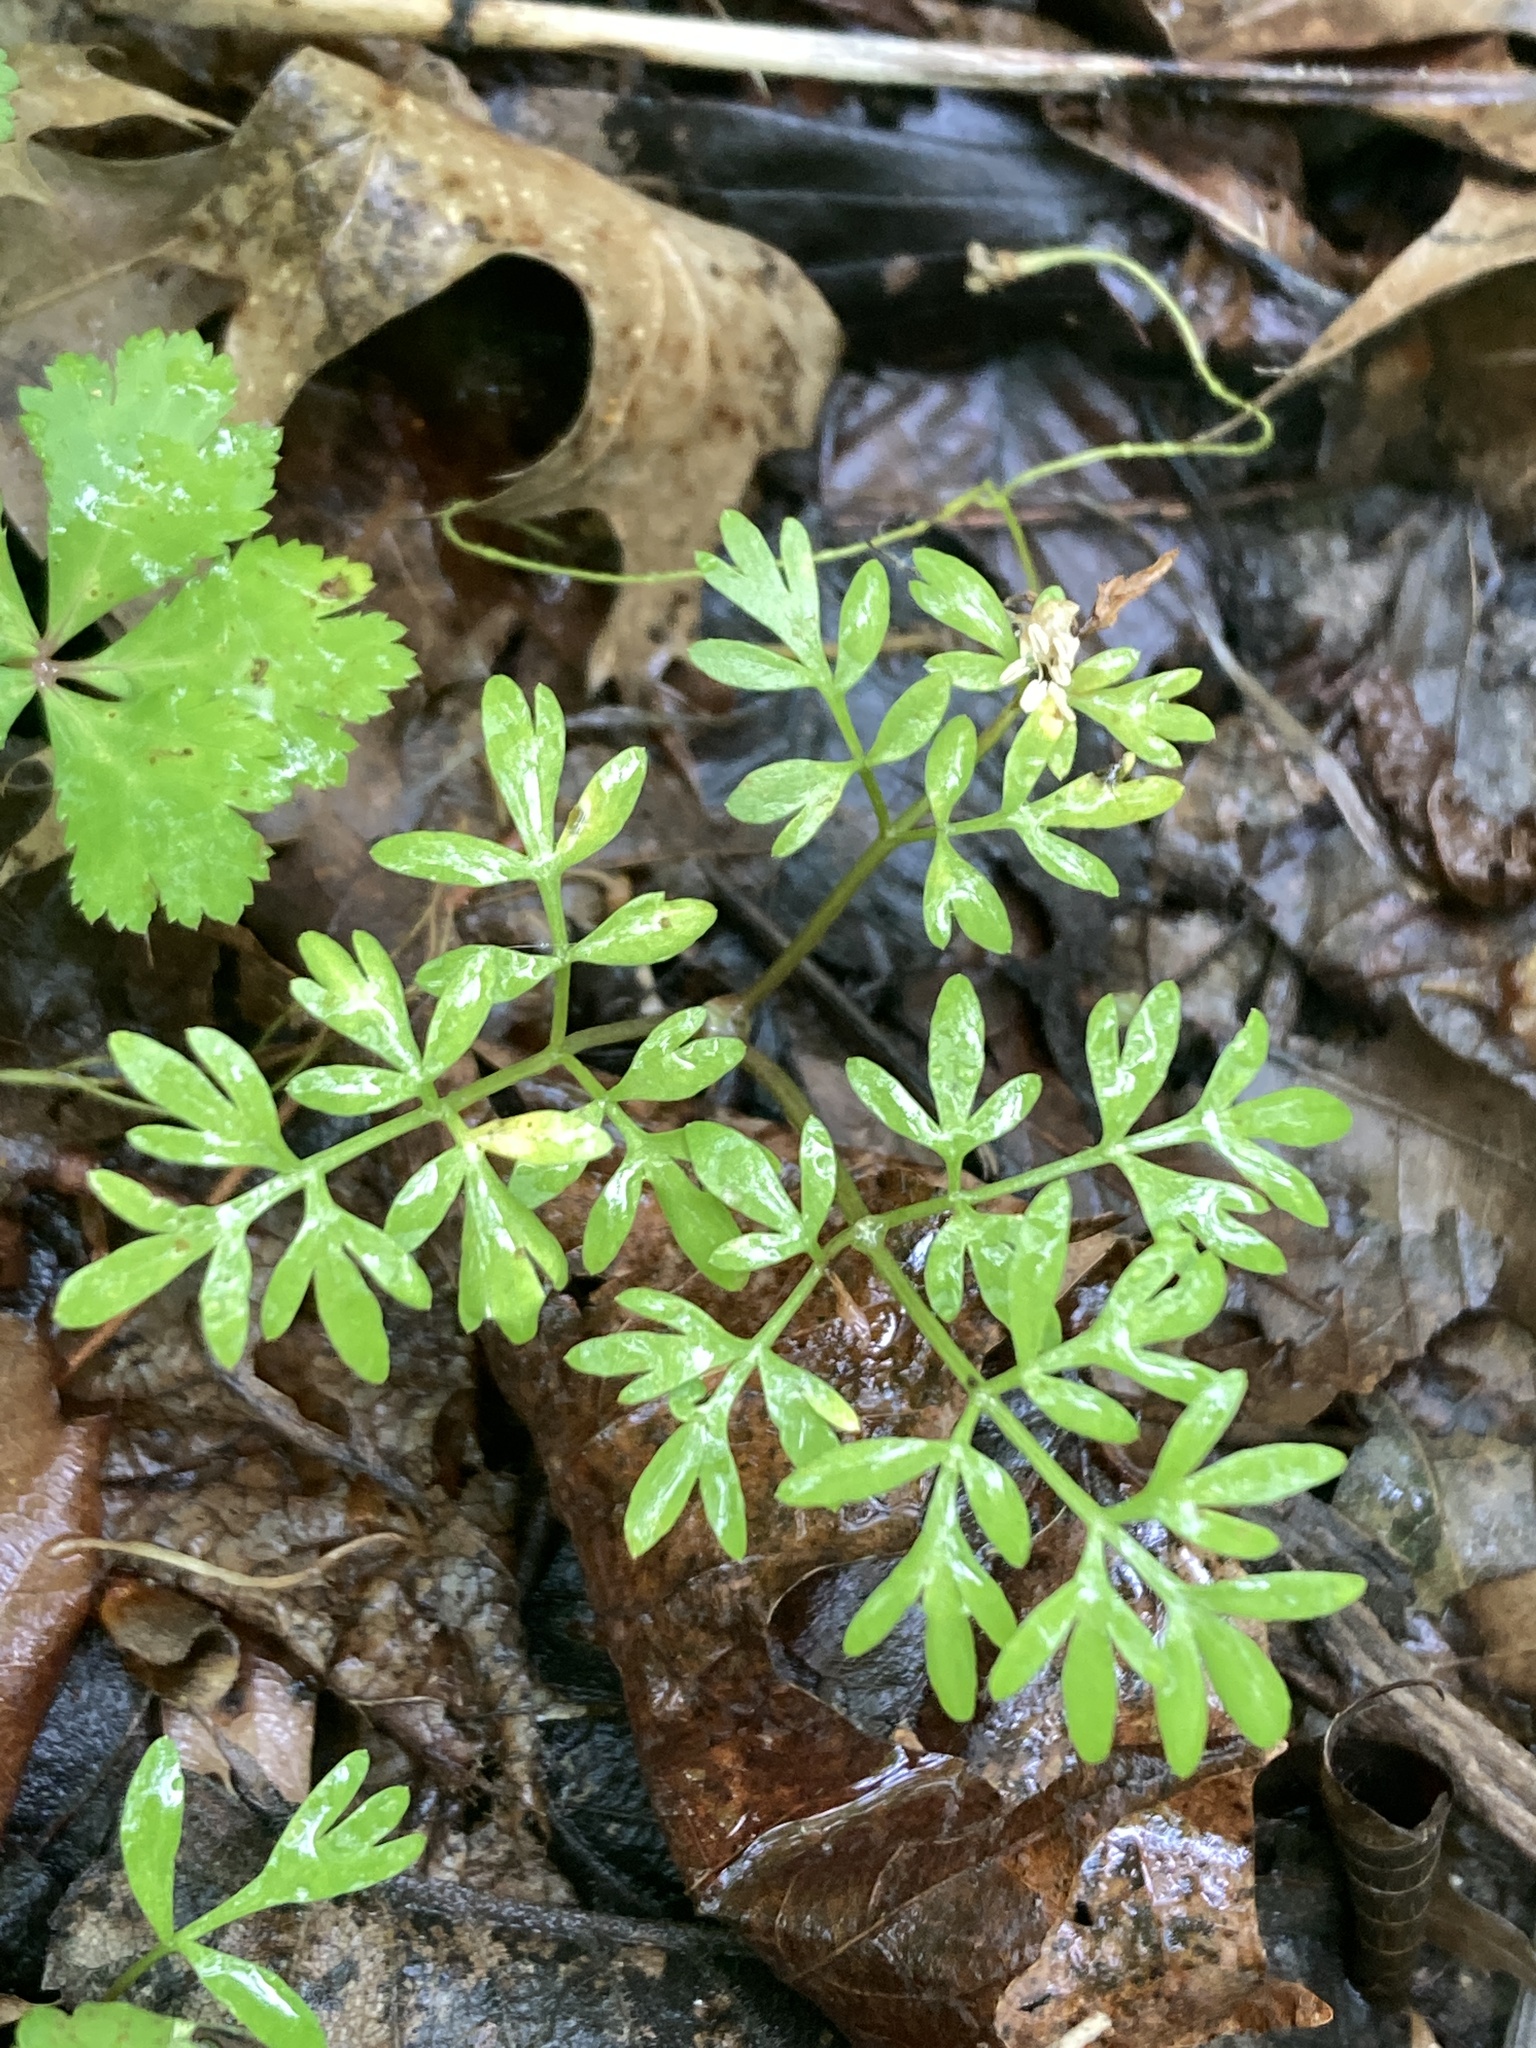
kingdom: Plantae
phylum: Tracheophyta
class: Magnoliopsida
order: Apiales
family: Apiaceae
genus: Erigenia
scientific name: Erigenia bulbosa
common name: Pepper-and-salt
